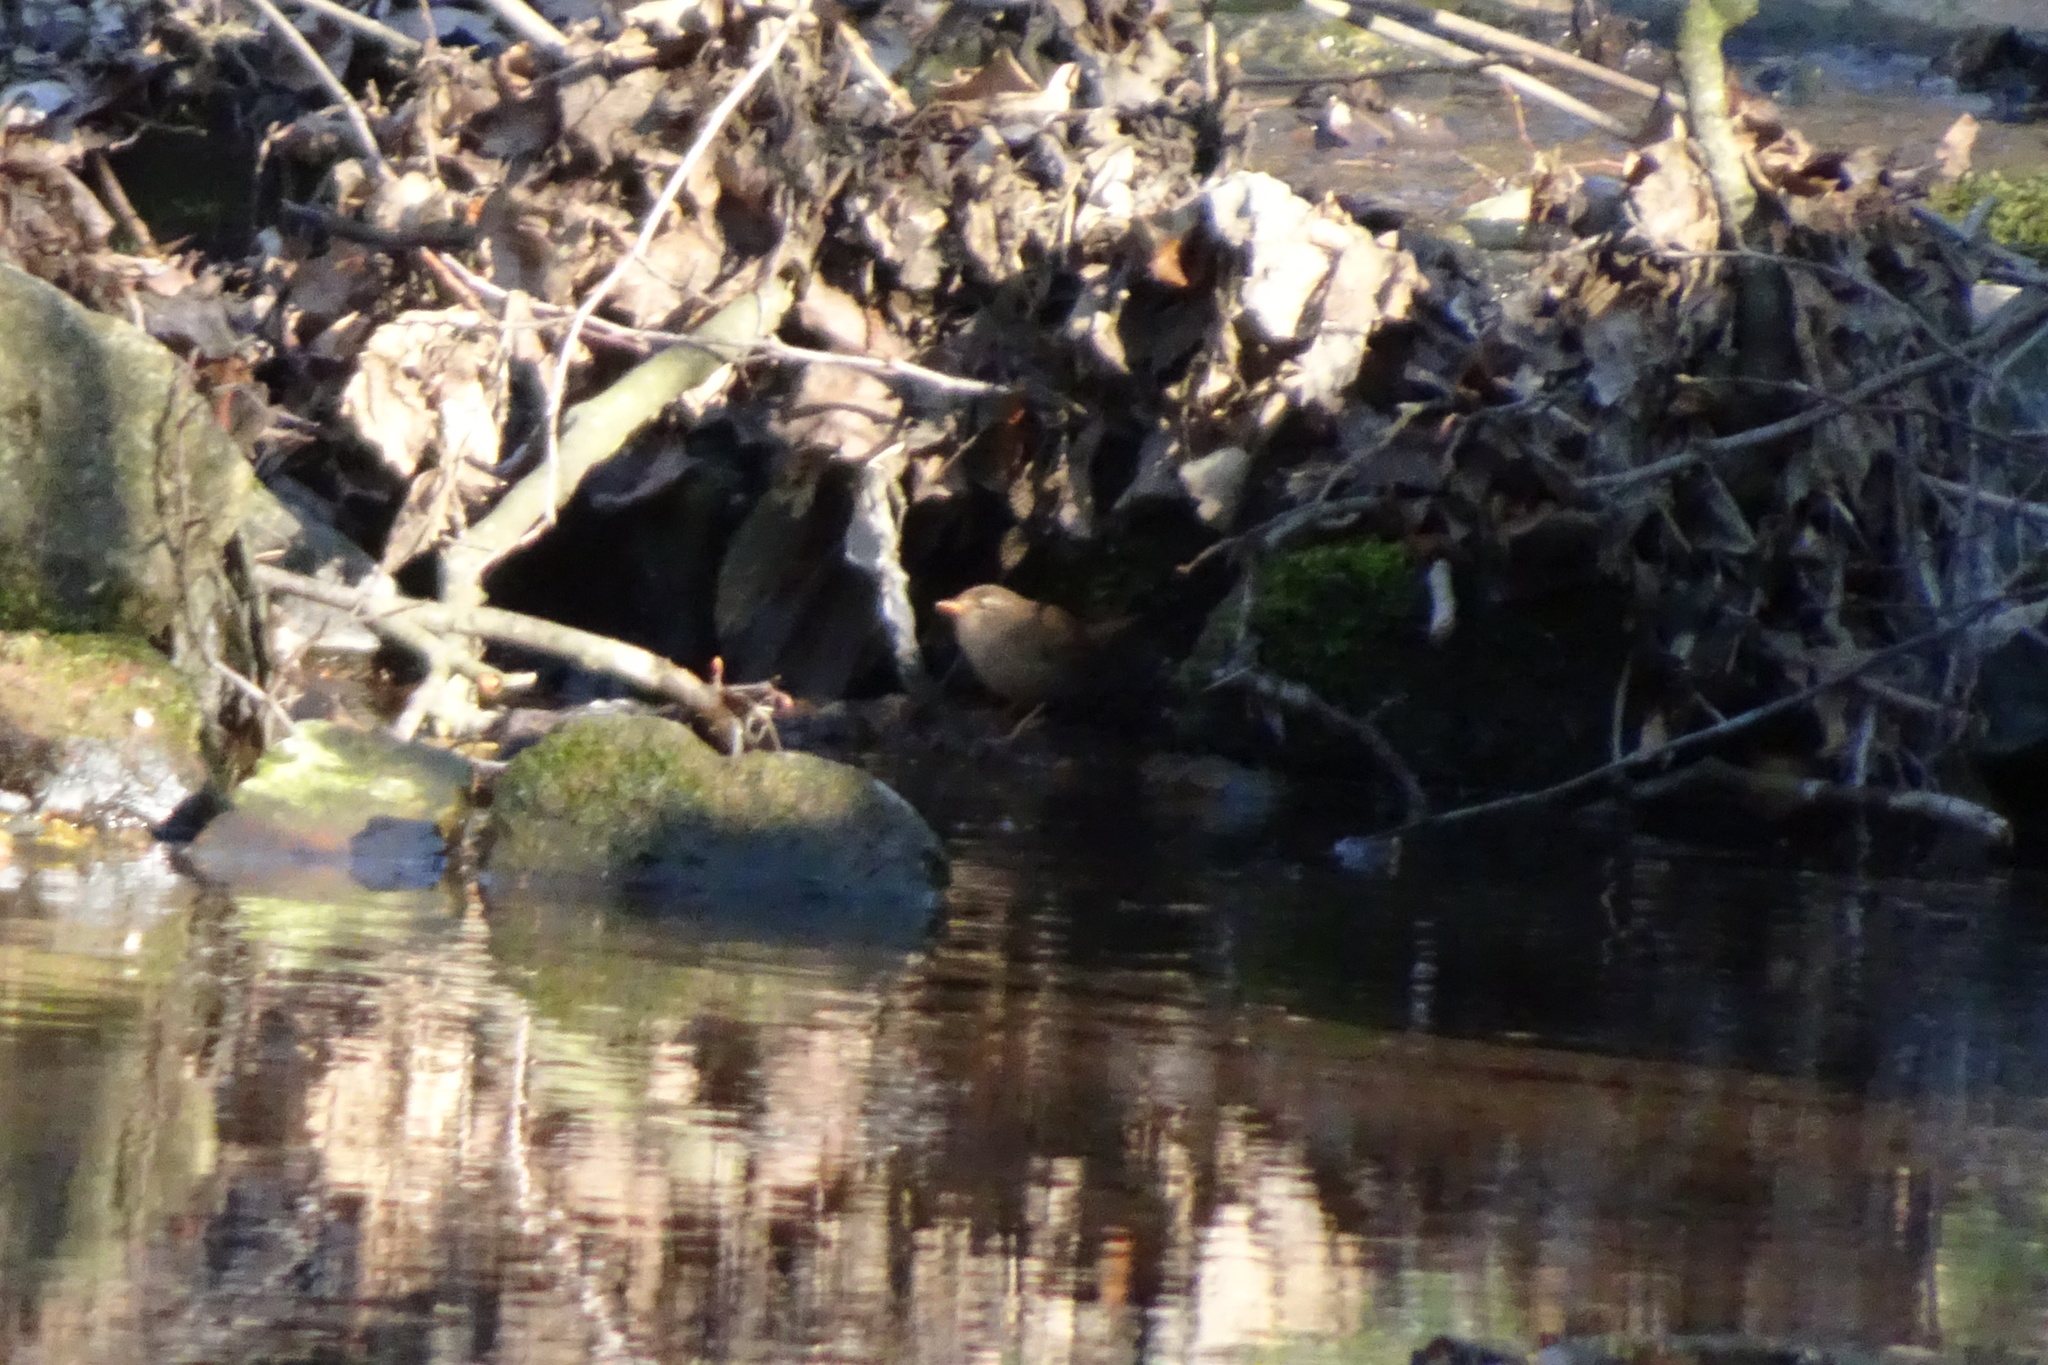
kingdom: Animalia
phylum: Chordata
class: Aves
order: Passeriformes
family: Troglodytidae
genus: Troglodytes
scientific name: Troglodytes troglodytes
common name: Eurasian wren
